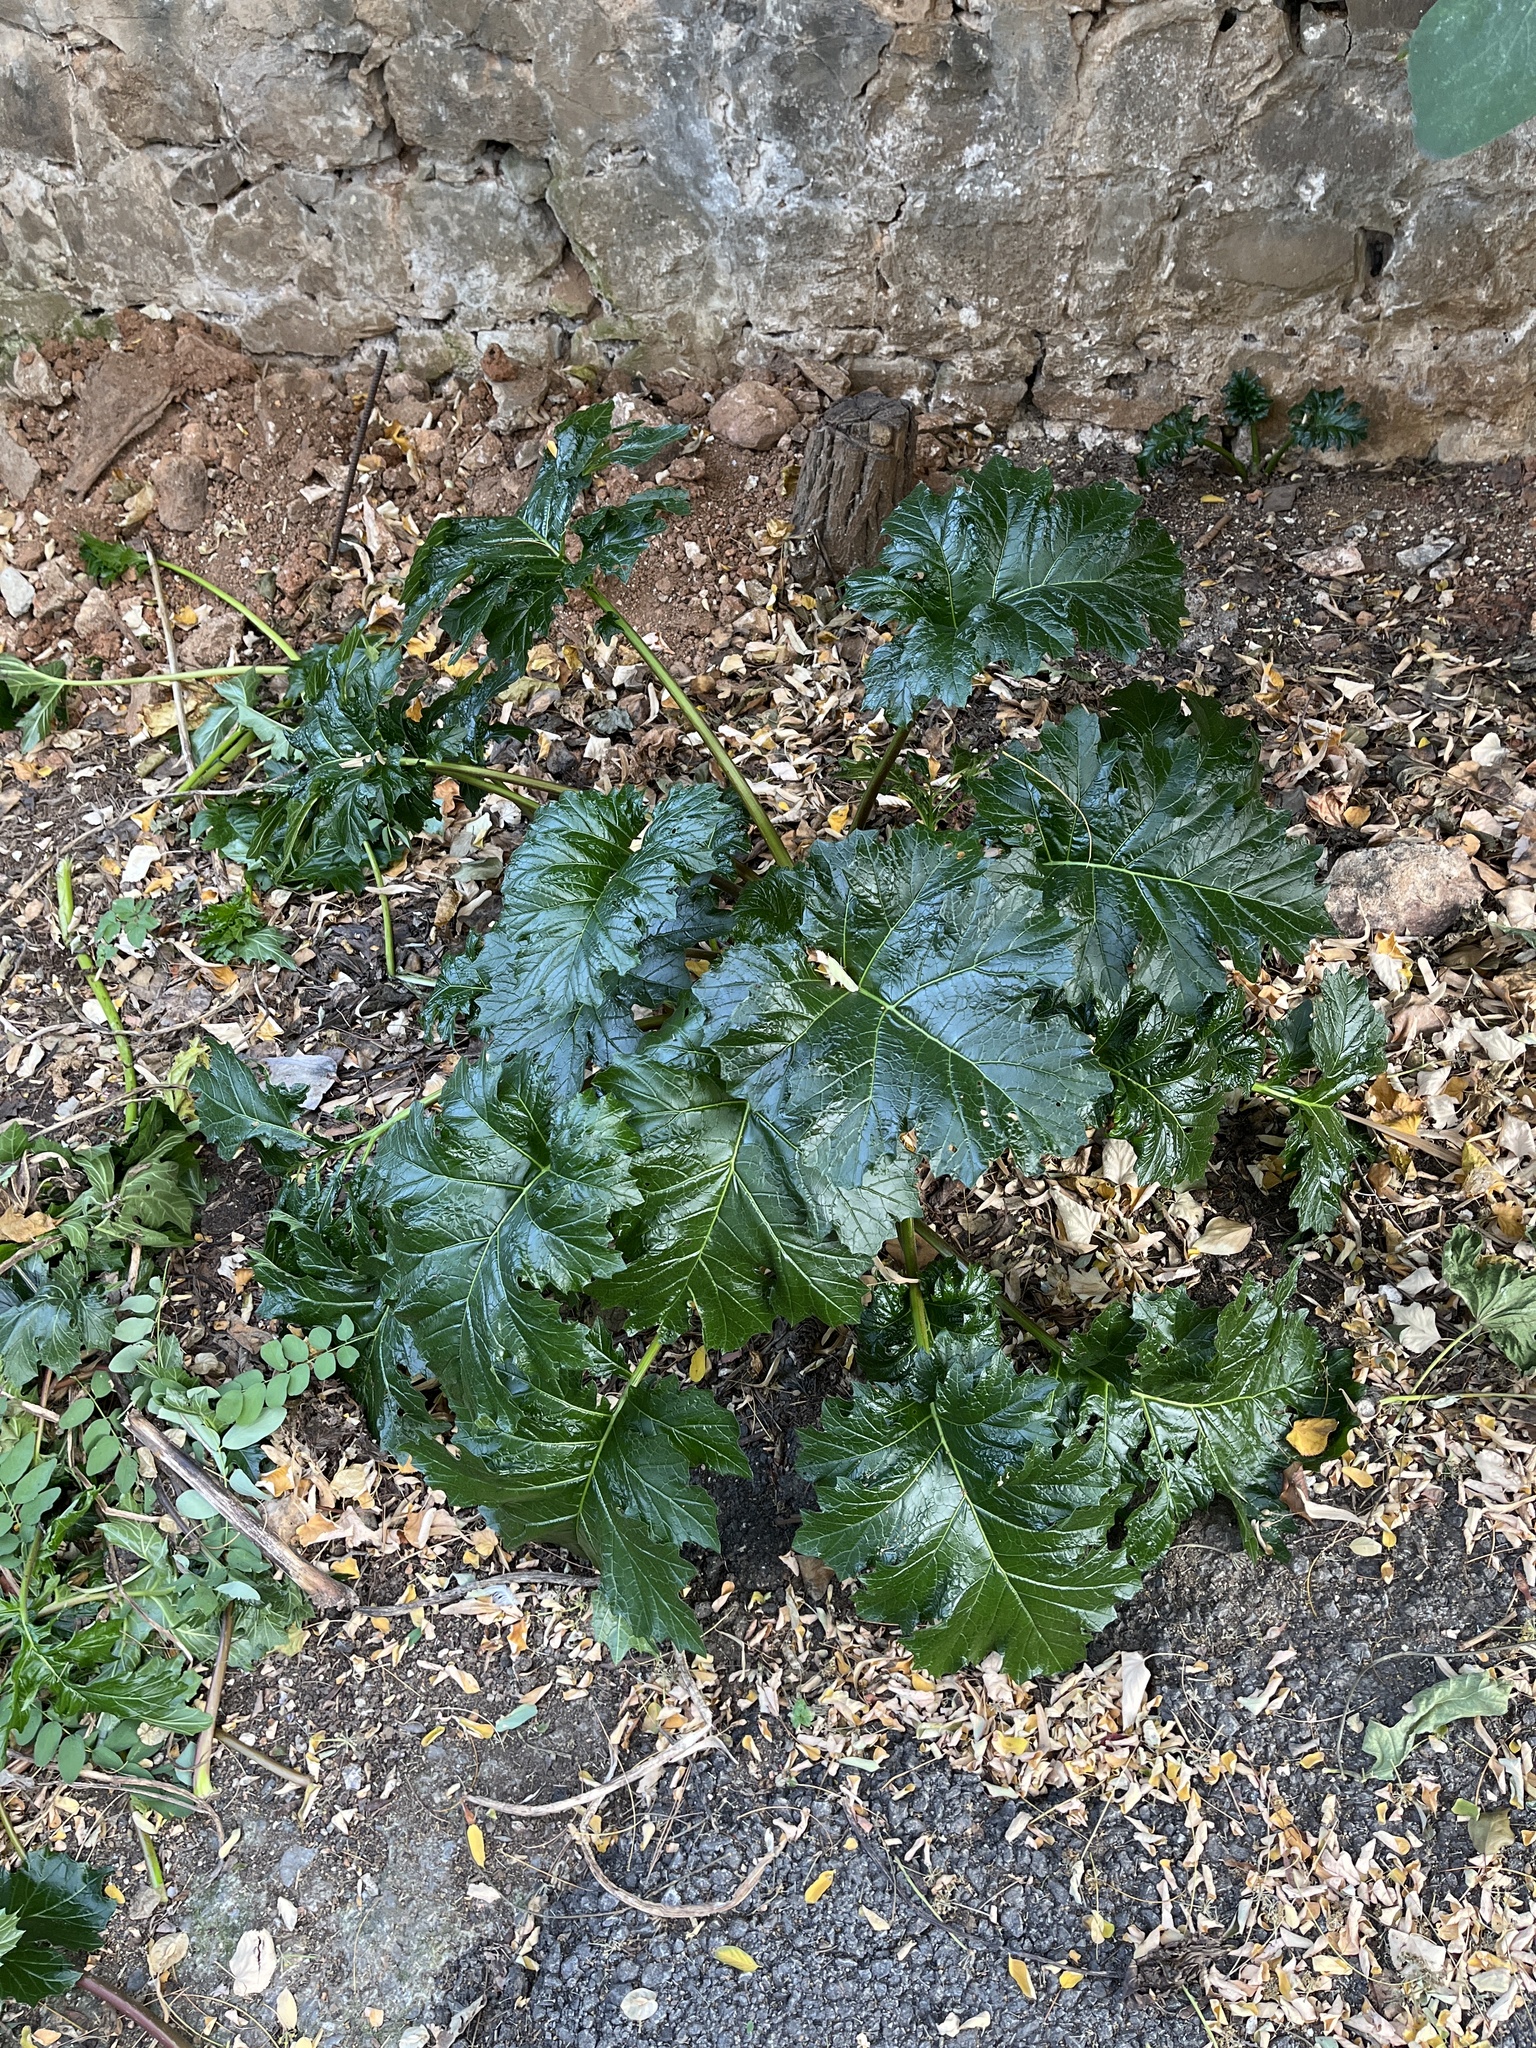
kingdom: Plantae
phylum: Tracheophyta
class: Magnoliopsida
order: Lamiales
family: Acanthaceae
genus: Acanthus
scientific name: Acanthus mollis
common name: Bear's-breech
